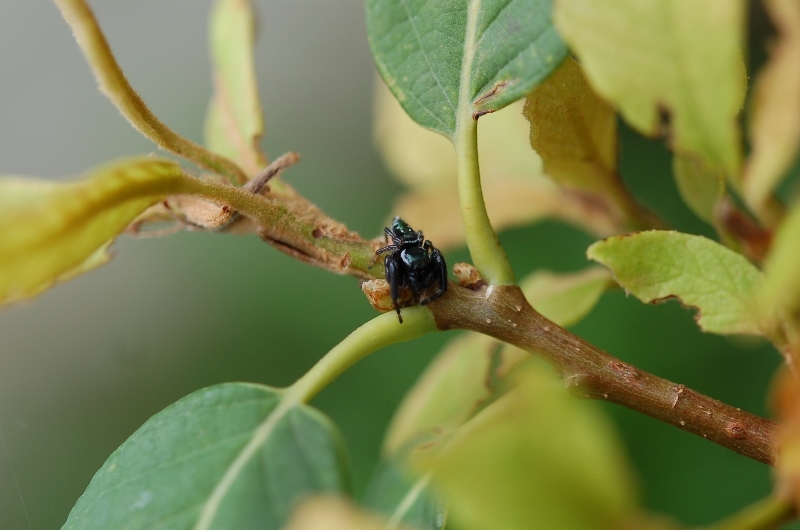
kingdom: Animalia
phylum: Arthropoda
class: Arachnida
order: Araneae
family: Salticidae
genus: Paraphidippus
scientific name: Paraphidippus aurantius
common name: Jumping spiders
